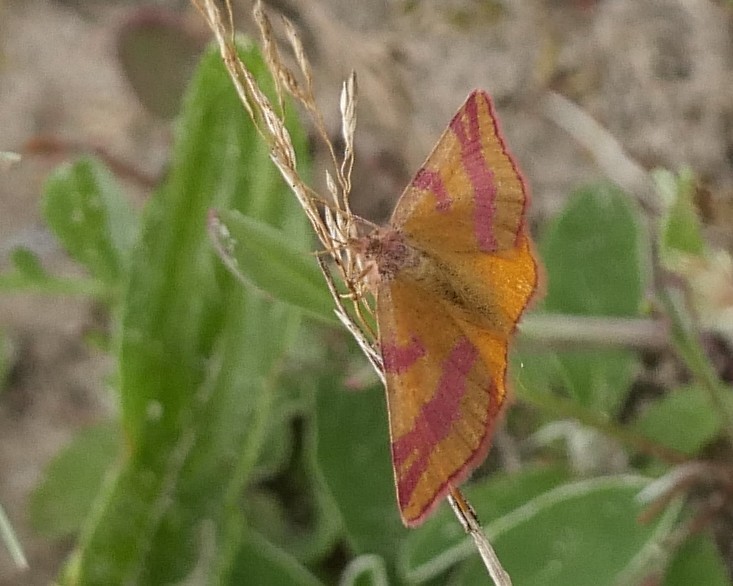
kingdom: Animalia
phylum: Arthropoda
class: Insecta
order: Lepidoptera
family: Geometridae
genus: Lythria
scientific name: Lythria cruentaria
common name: Purple-barred yellow
